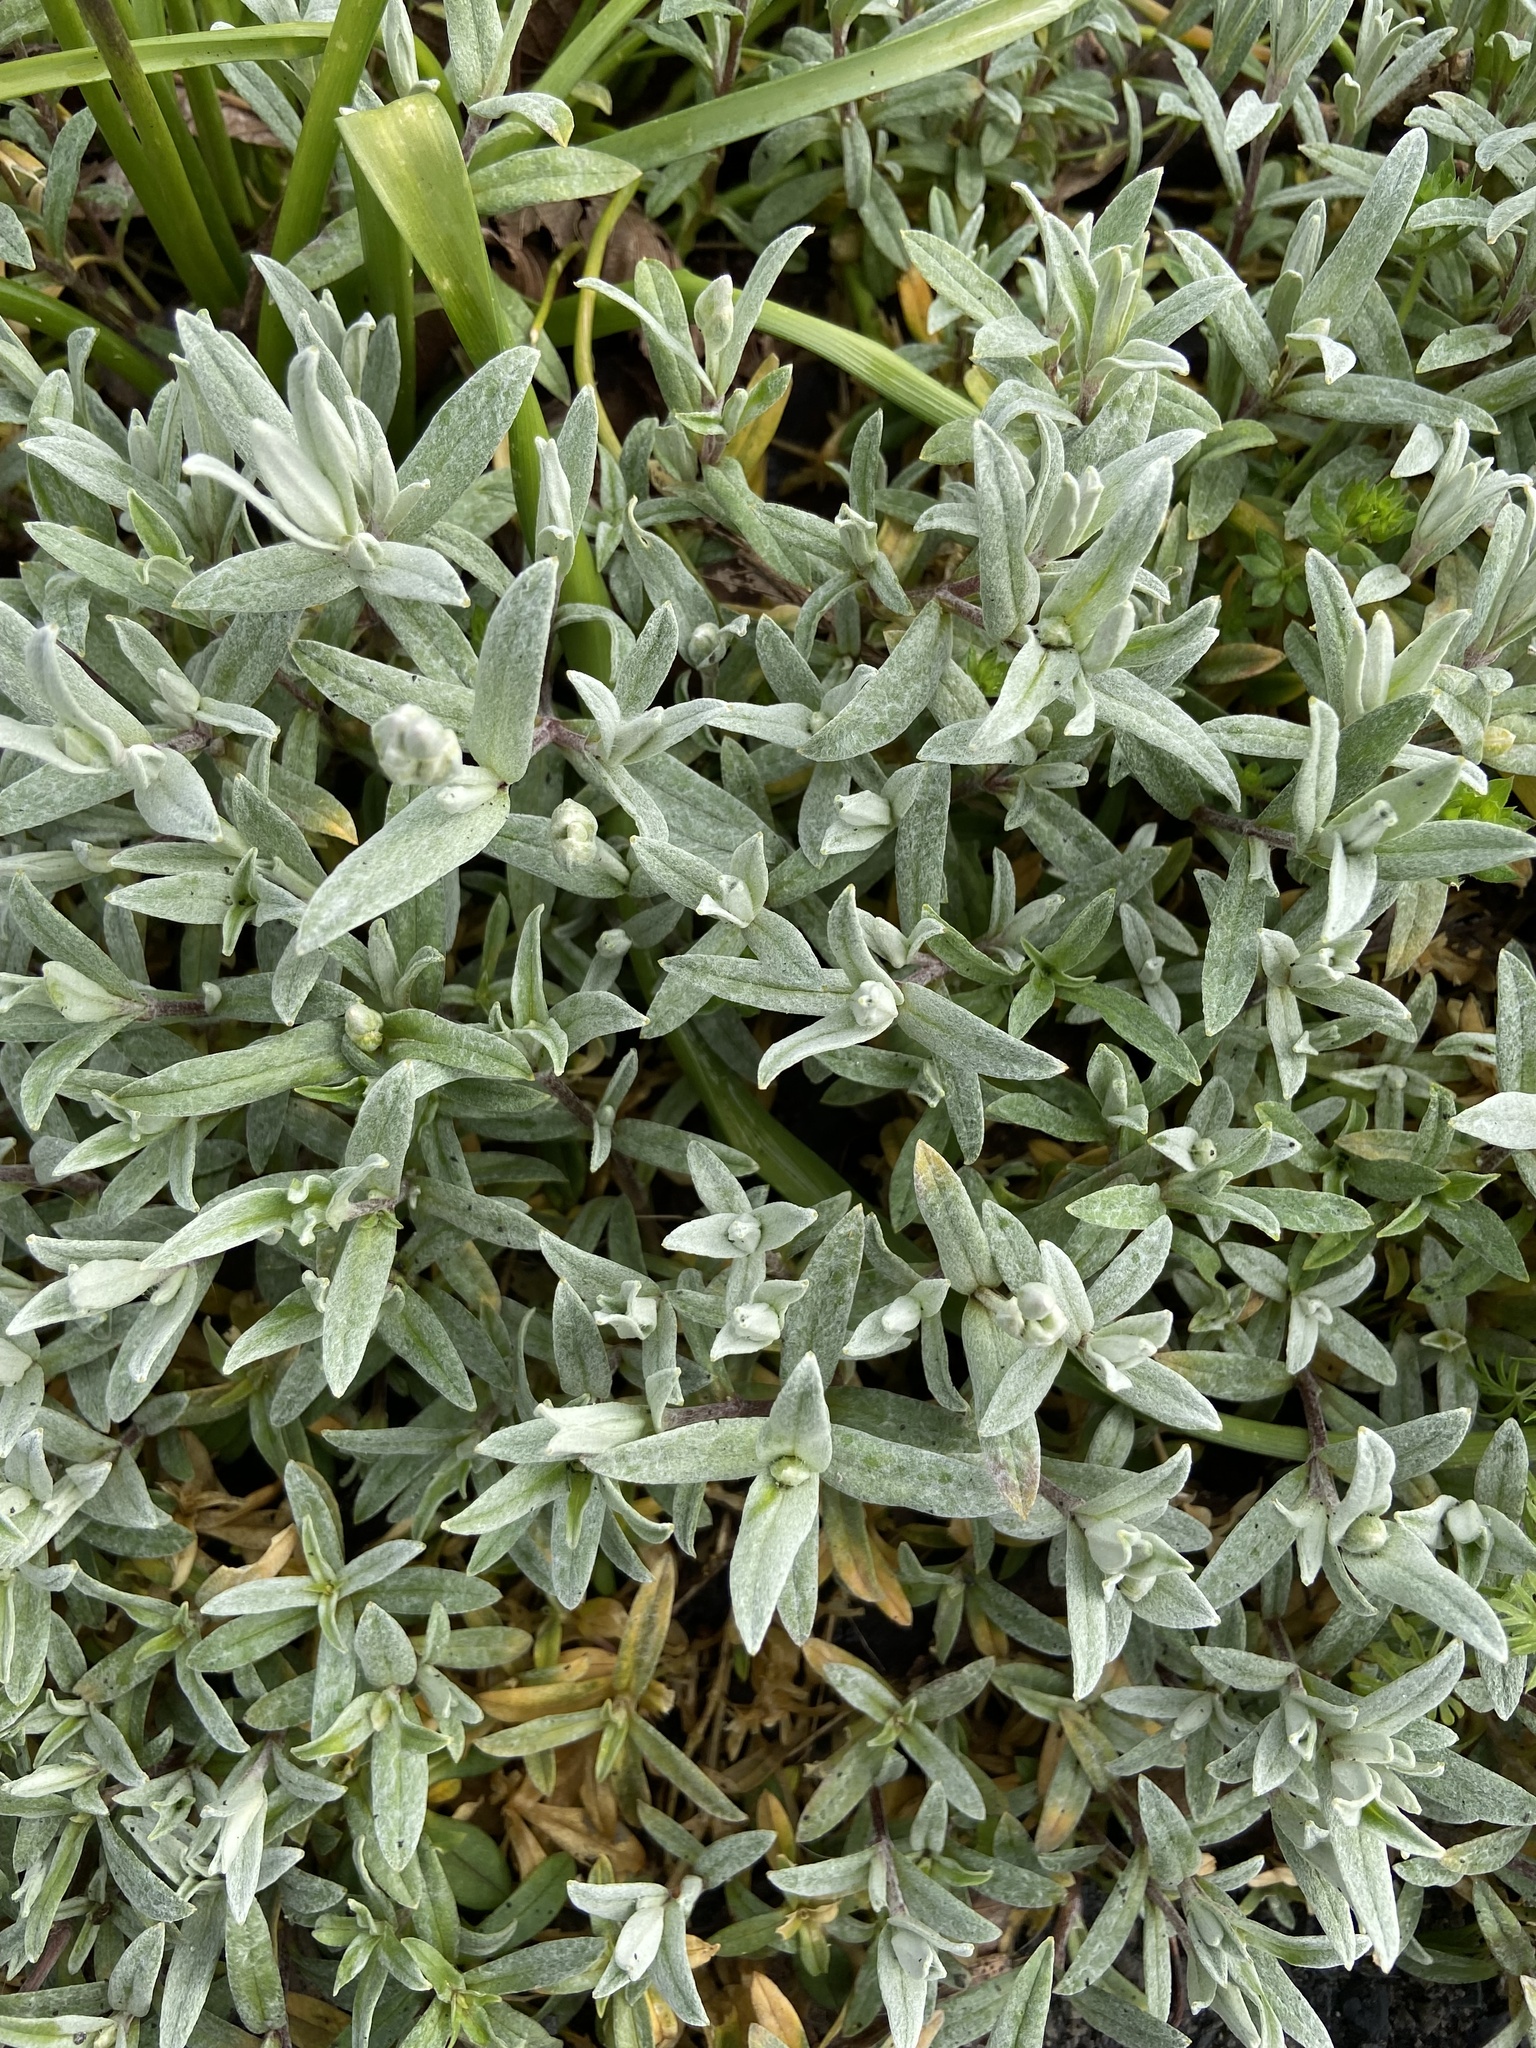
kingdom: Plantae
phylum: Tracheophyta
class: Magnoliopsida
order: Caryophyllales
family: Caryophyllaceae
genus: Cerastium
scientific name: Cerastium tomentosum
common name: Snow-in-summer
